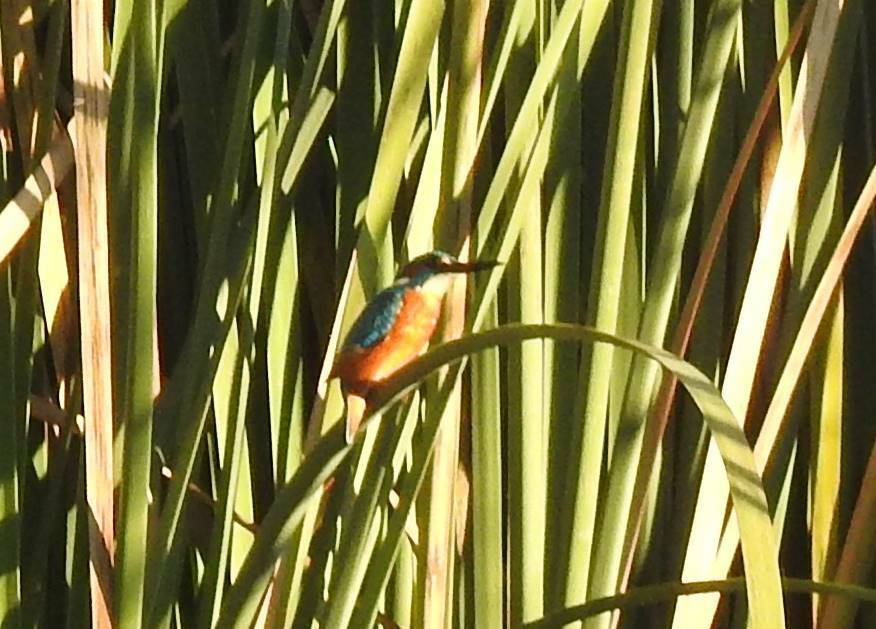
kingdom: Animalia
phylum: Chordata
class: Aves
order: Coraciiformes
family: Alcedinidae
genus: Alcedo
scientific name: Alcedo atthis
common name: Common kingfisher
